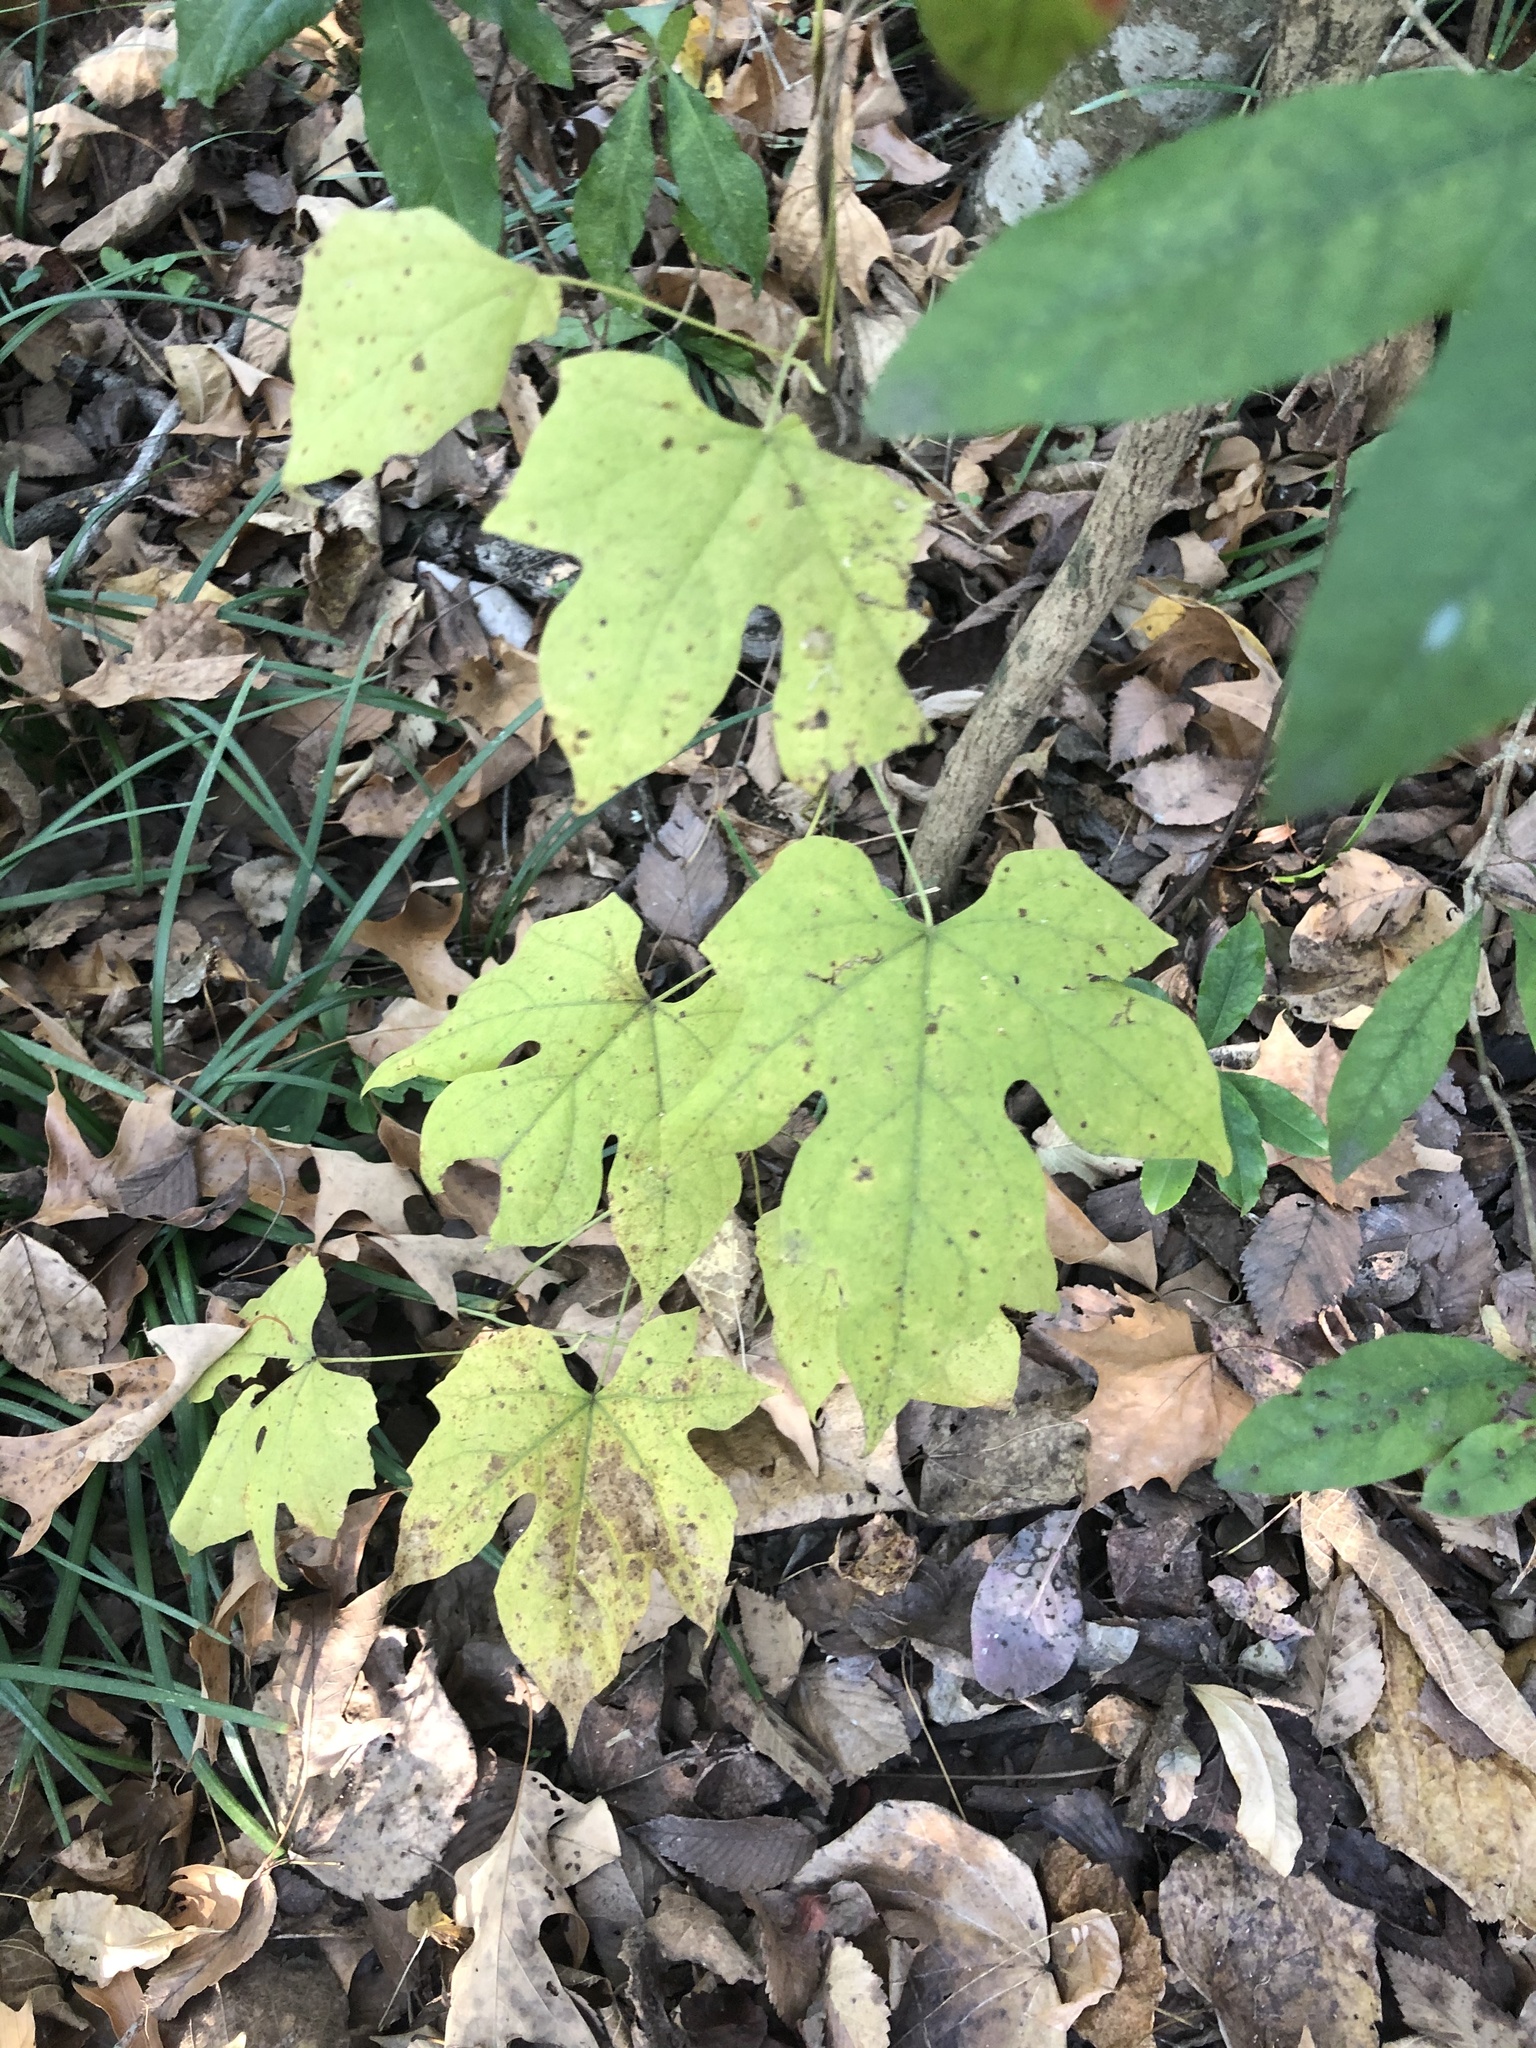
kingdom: Plantae
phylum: Tracheophyta
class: Magnoliopsida
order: Ranunculales
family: Menispermaceae
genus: Calycocarpum
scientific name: Calycocarpum lyonii
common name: Cupseed
